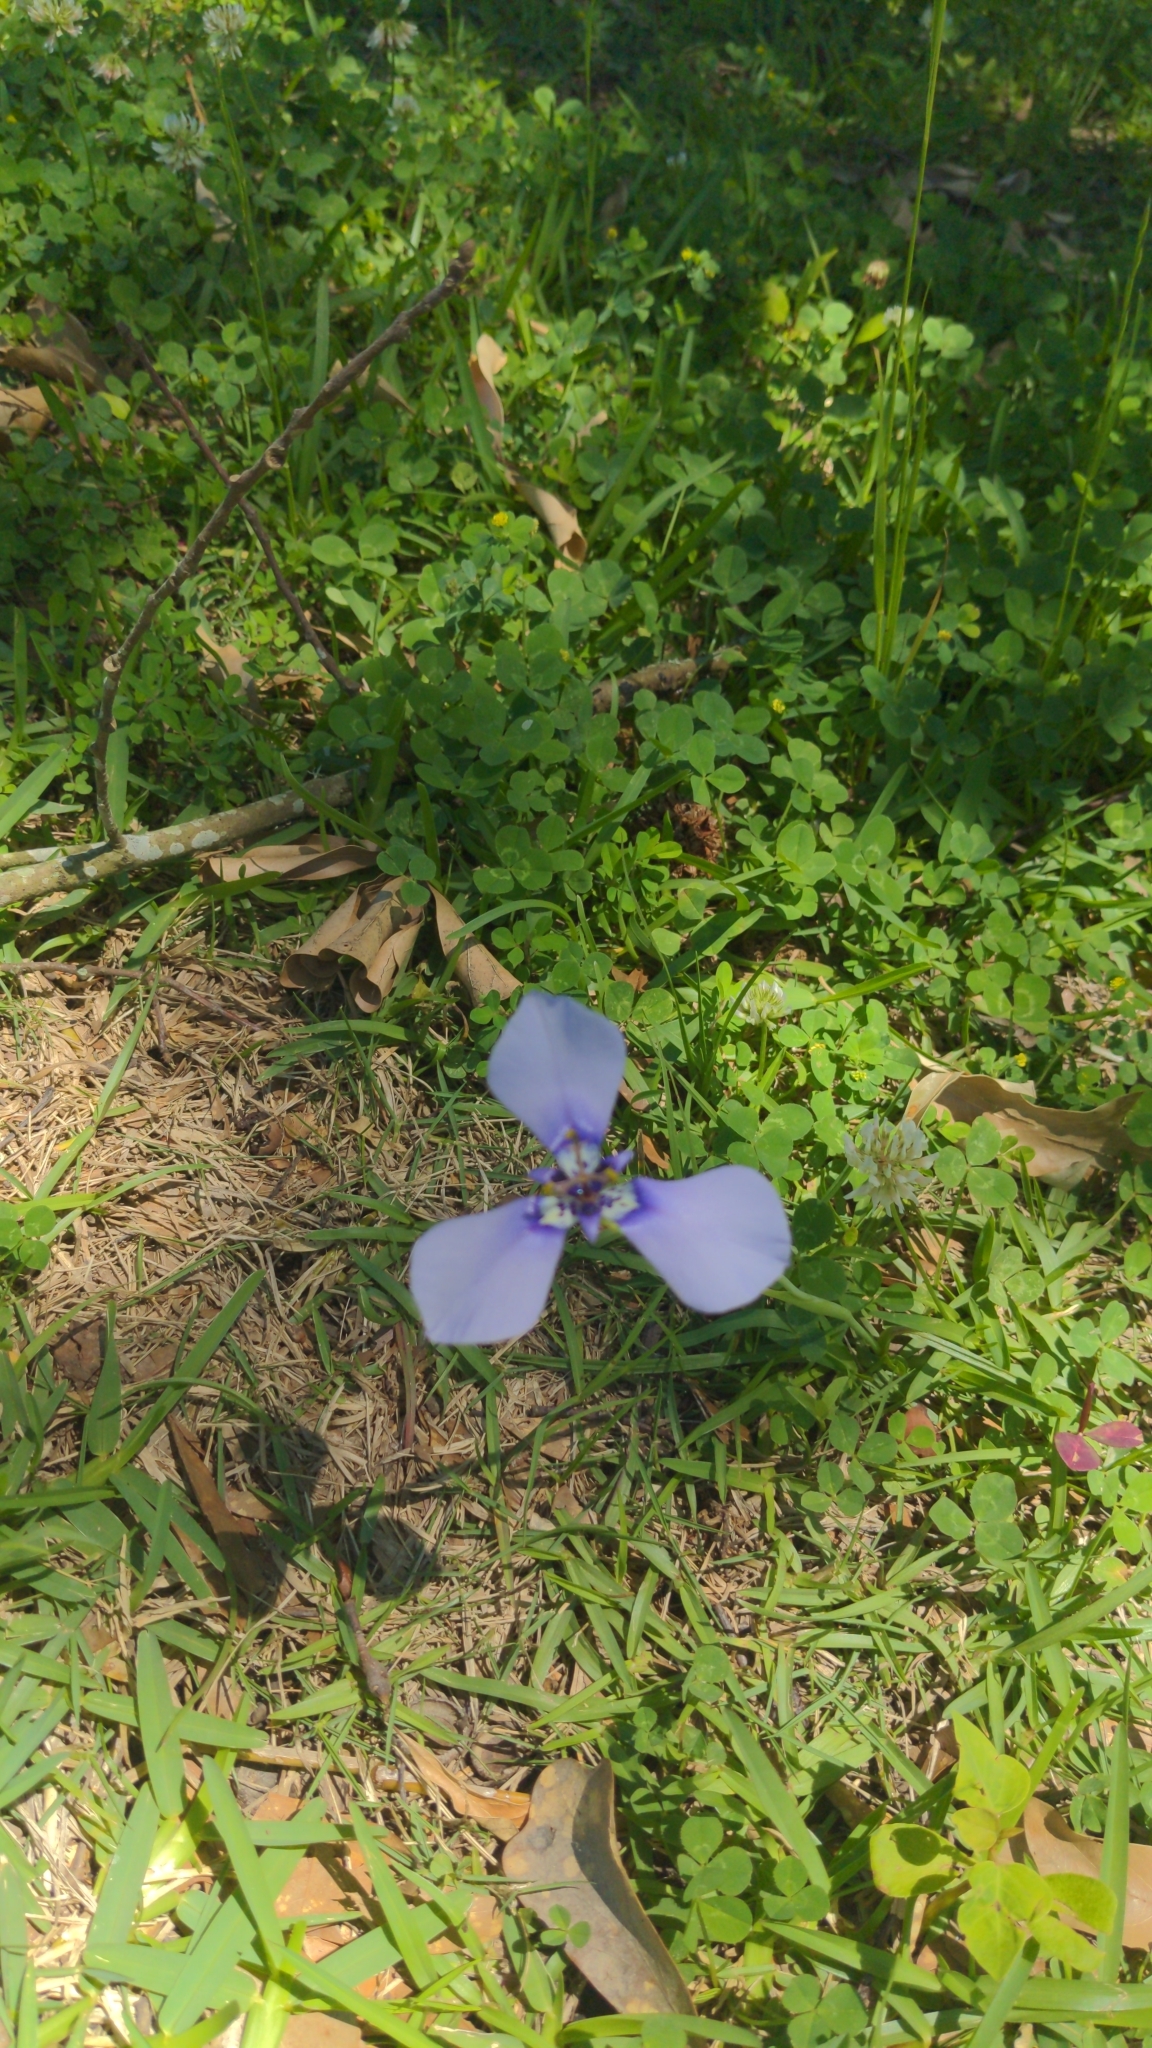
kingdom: Plantae
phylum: Tracheophyta
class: Liliopsida
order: Asparagales
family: Iridaceae
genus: Herbertia
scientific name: Herbertia lahue
